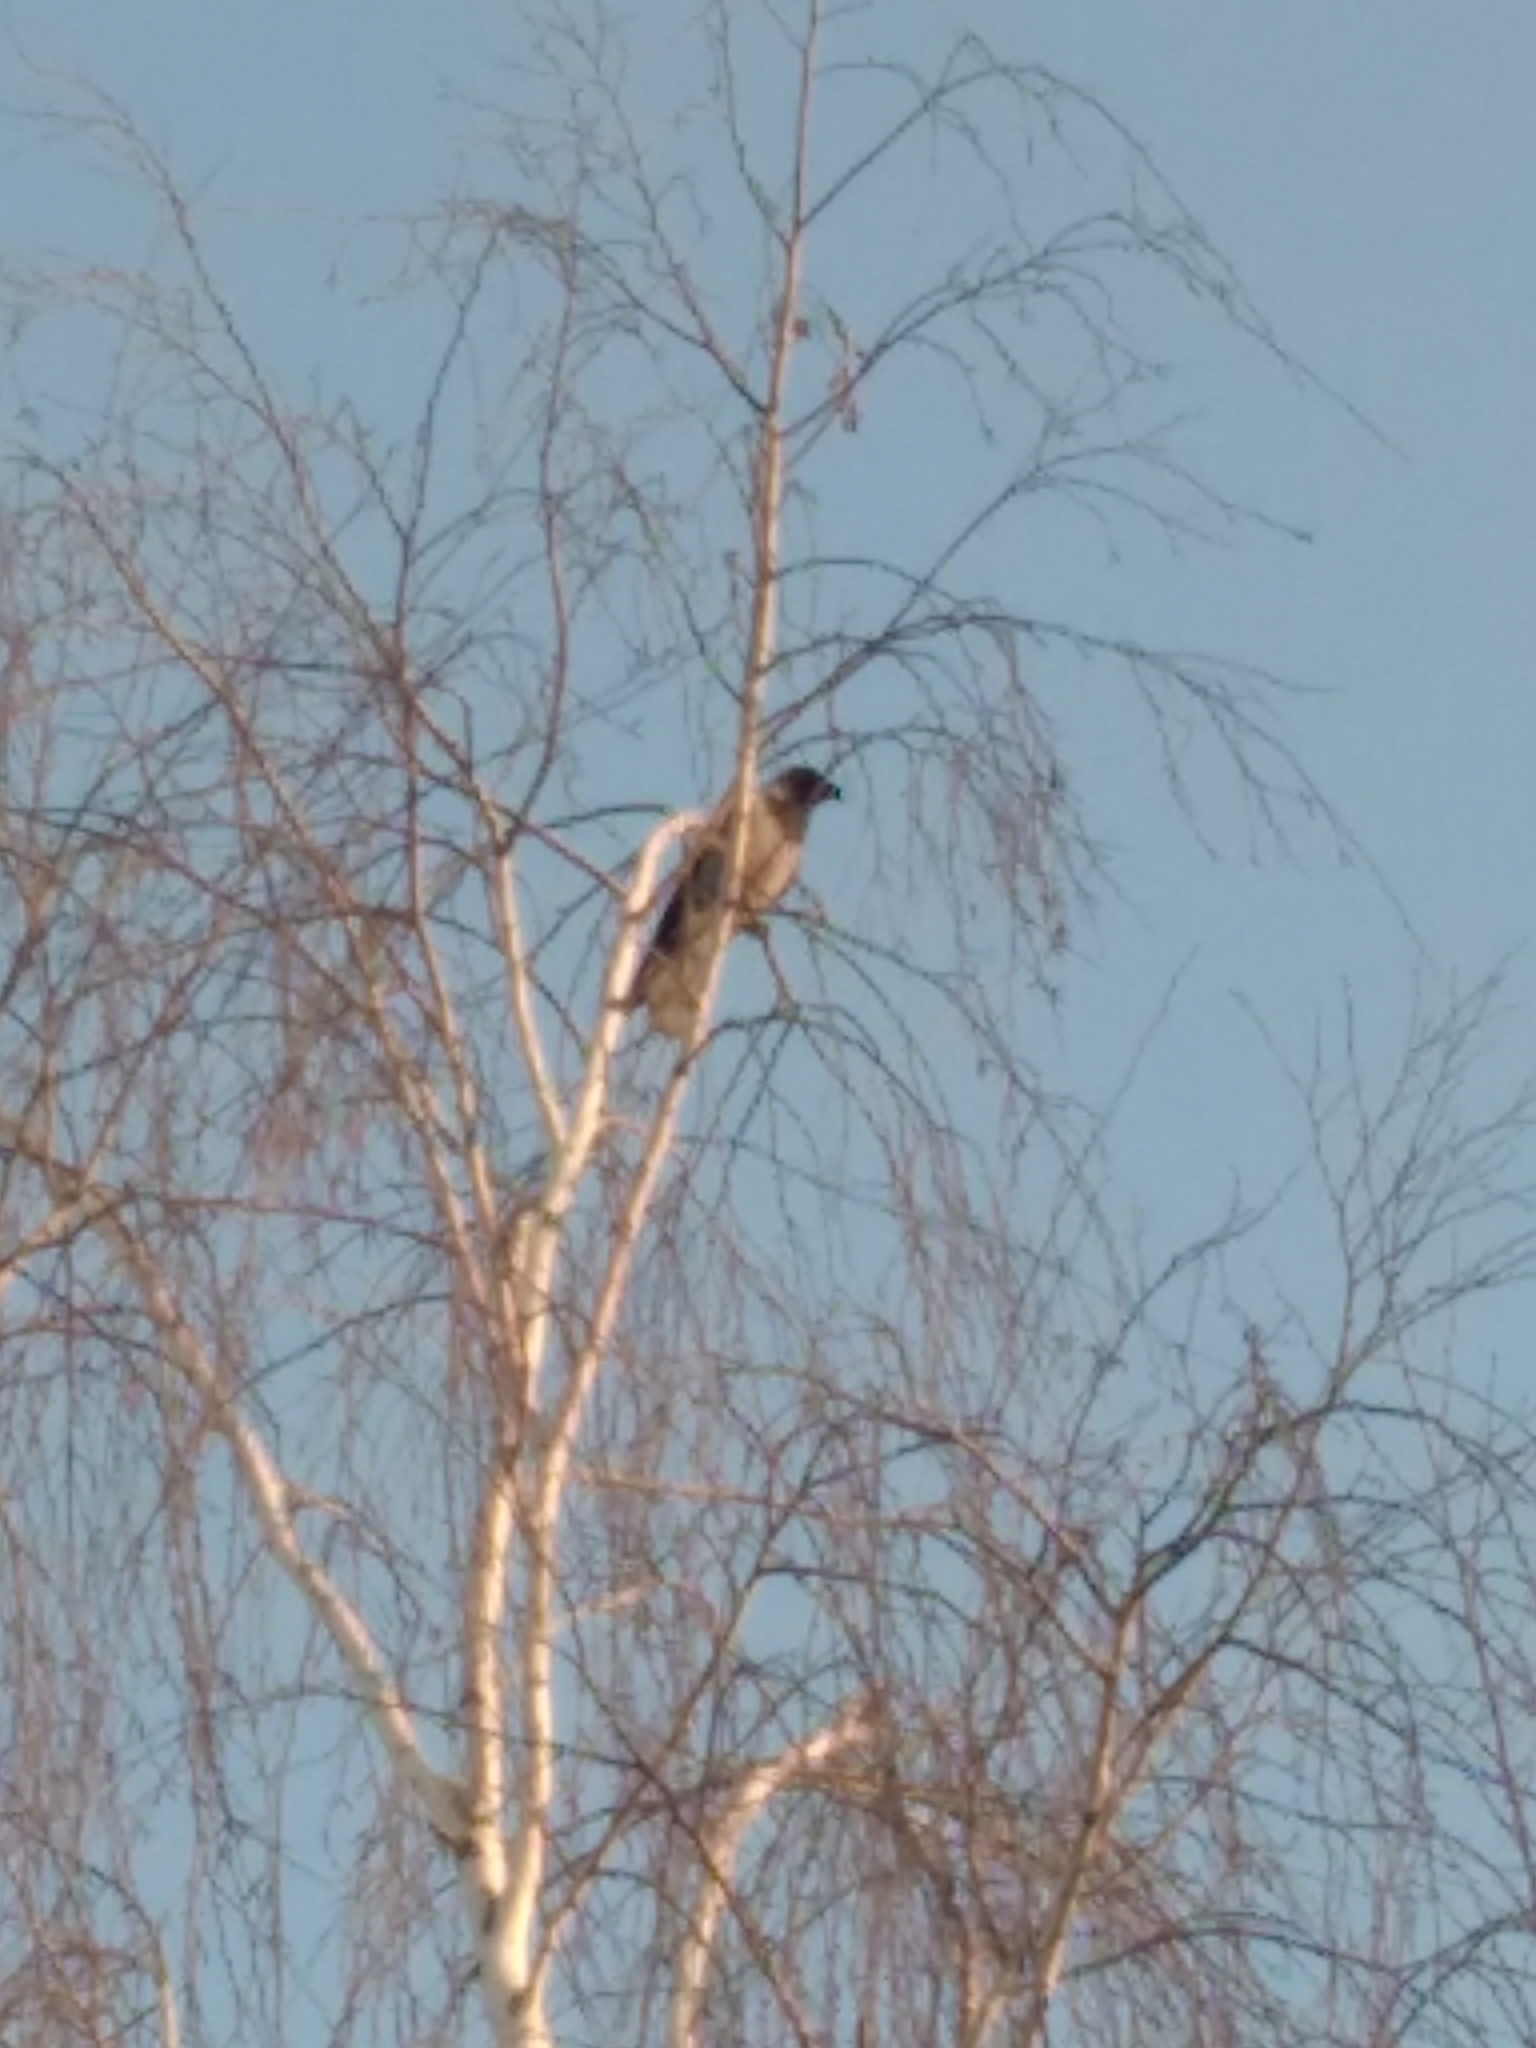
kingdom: Animalia
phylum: Chordata
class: Aves
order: Passeriformes
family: Corvidae
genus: Corvus
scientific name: Corvus cornix
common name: Hooded crow
